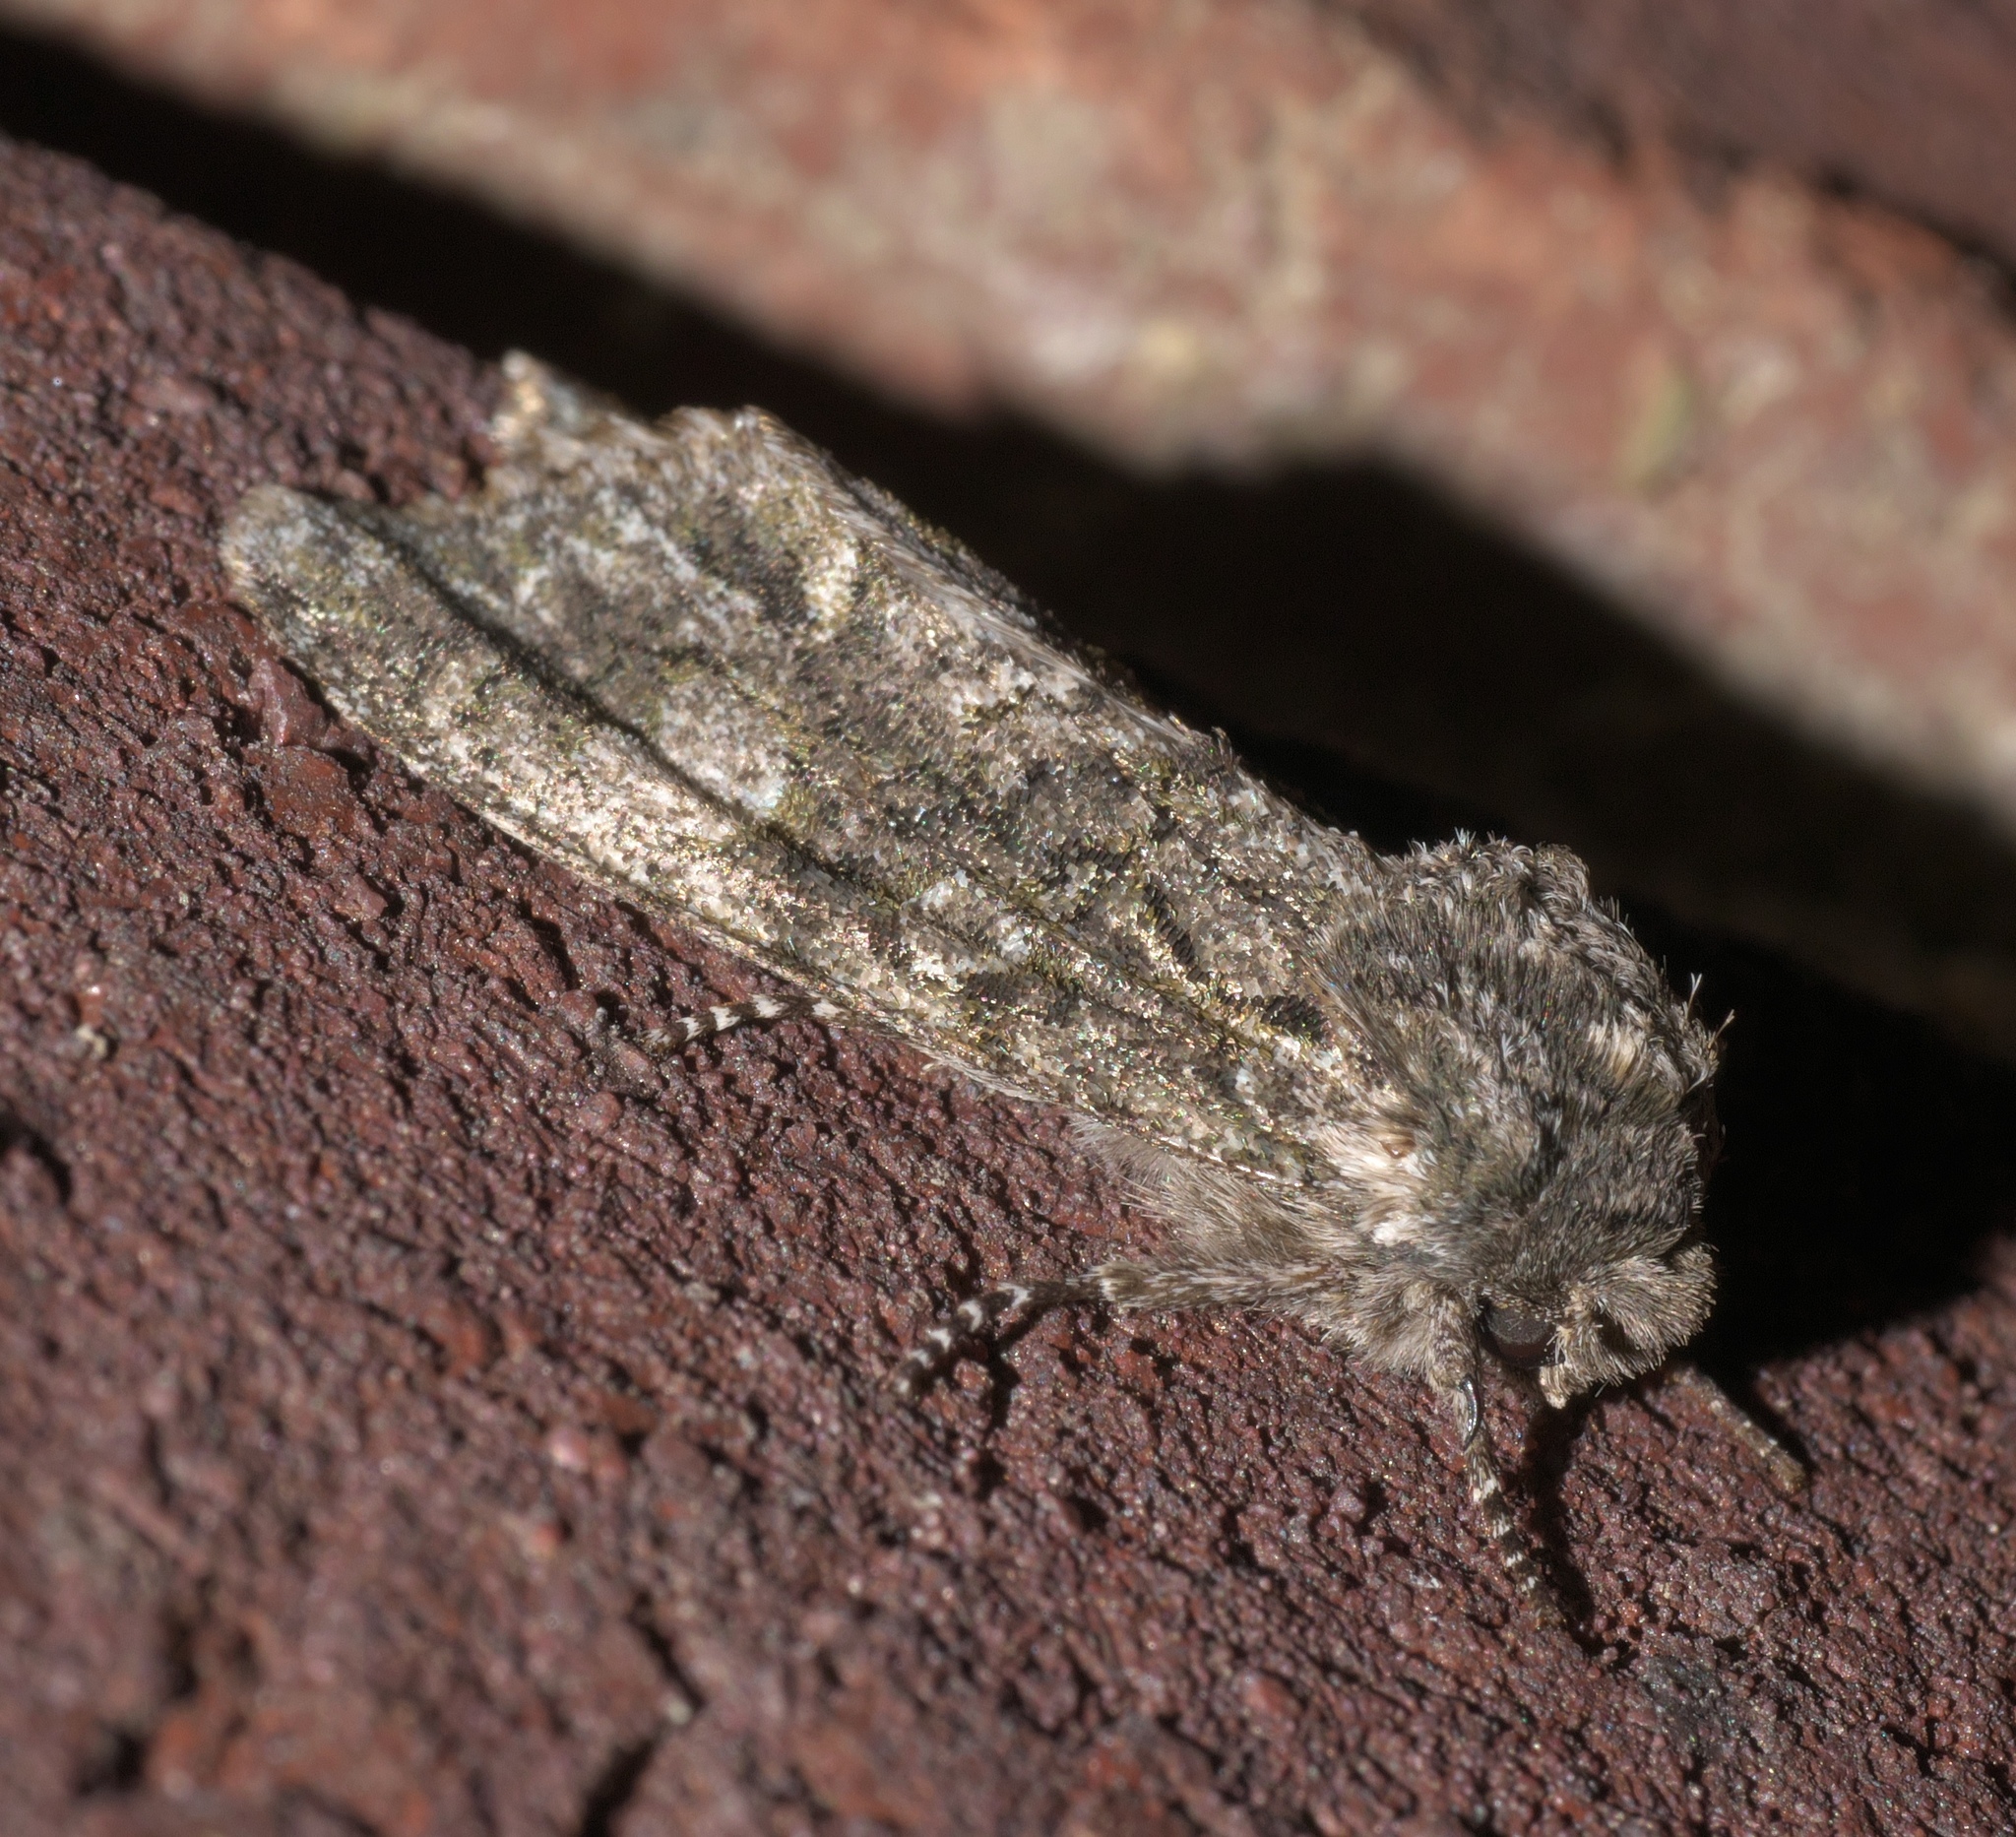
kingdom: Animalia
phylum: Arthropoda
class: Insecta
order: Lepidoptera
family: Noctuidae
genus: Psaphida
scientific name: Psaphida grotei
